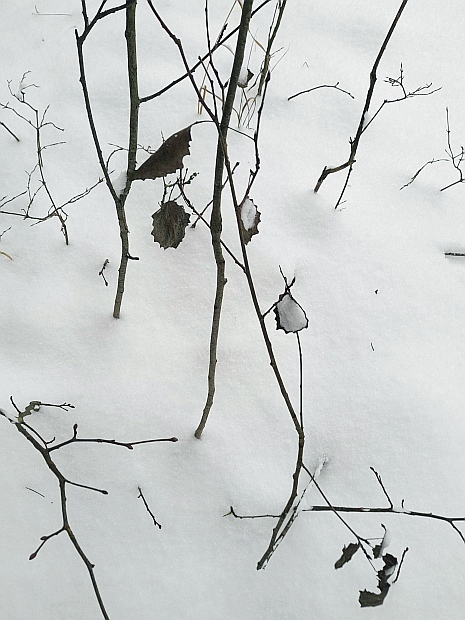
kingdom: Plantae
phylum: Tracheophyta
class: Magnoliopsida
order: Malpighiales
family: Salicaceae
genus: Populus
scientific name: Populus tremula
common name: European aspen
